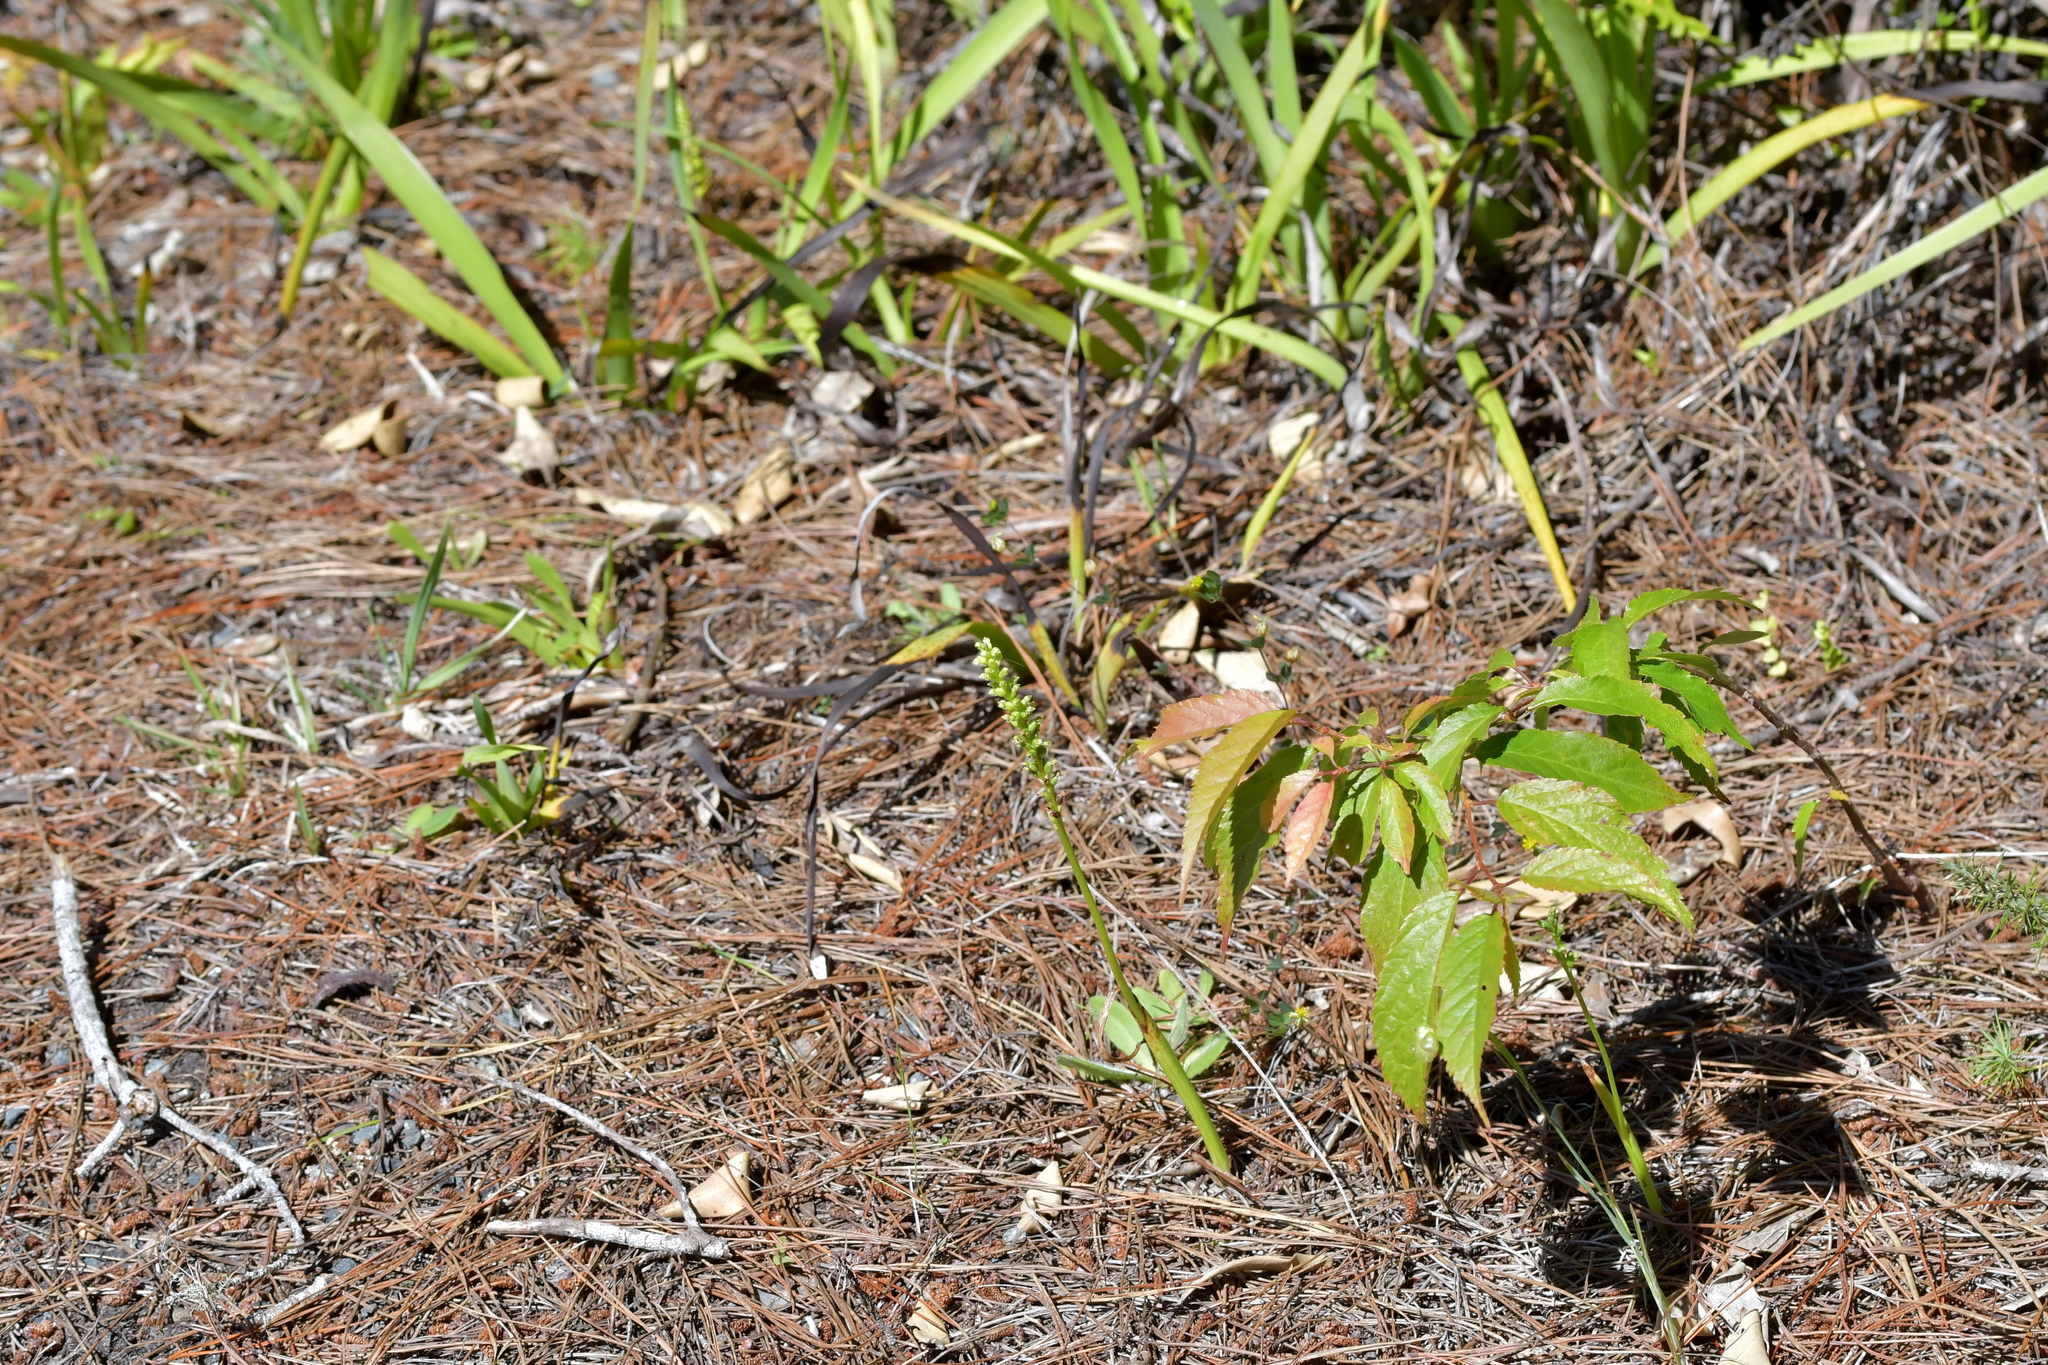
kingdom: Plantae
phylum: Tracheophyta
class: Liliopsida
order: Asparagales
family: Orchidaceae
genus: Microtis
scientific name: Microtis unifolia
